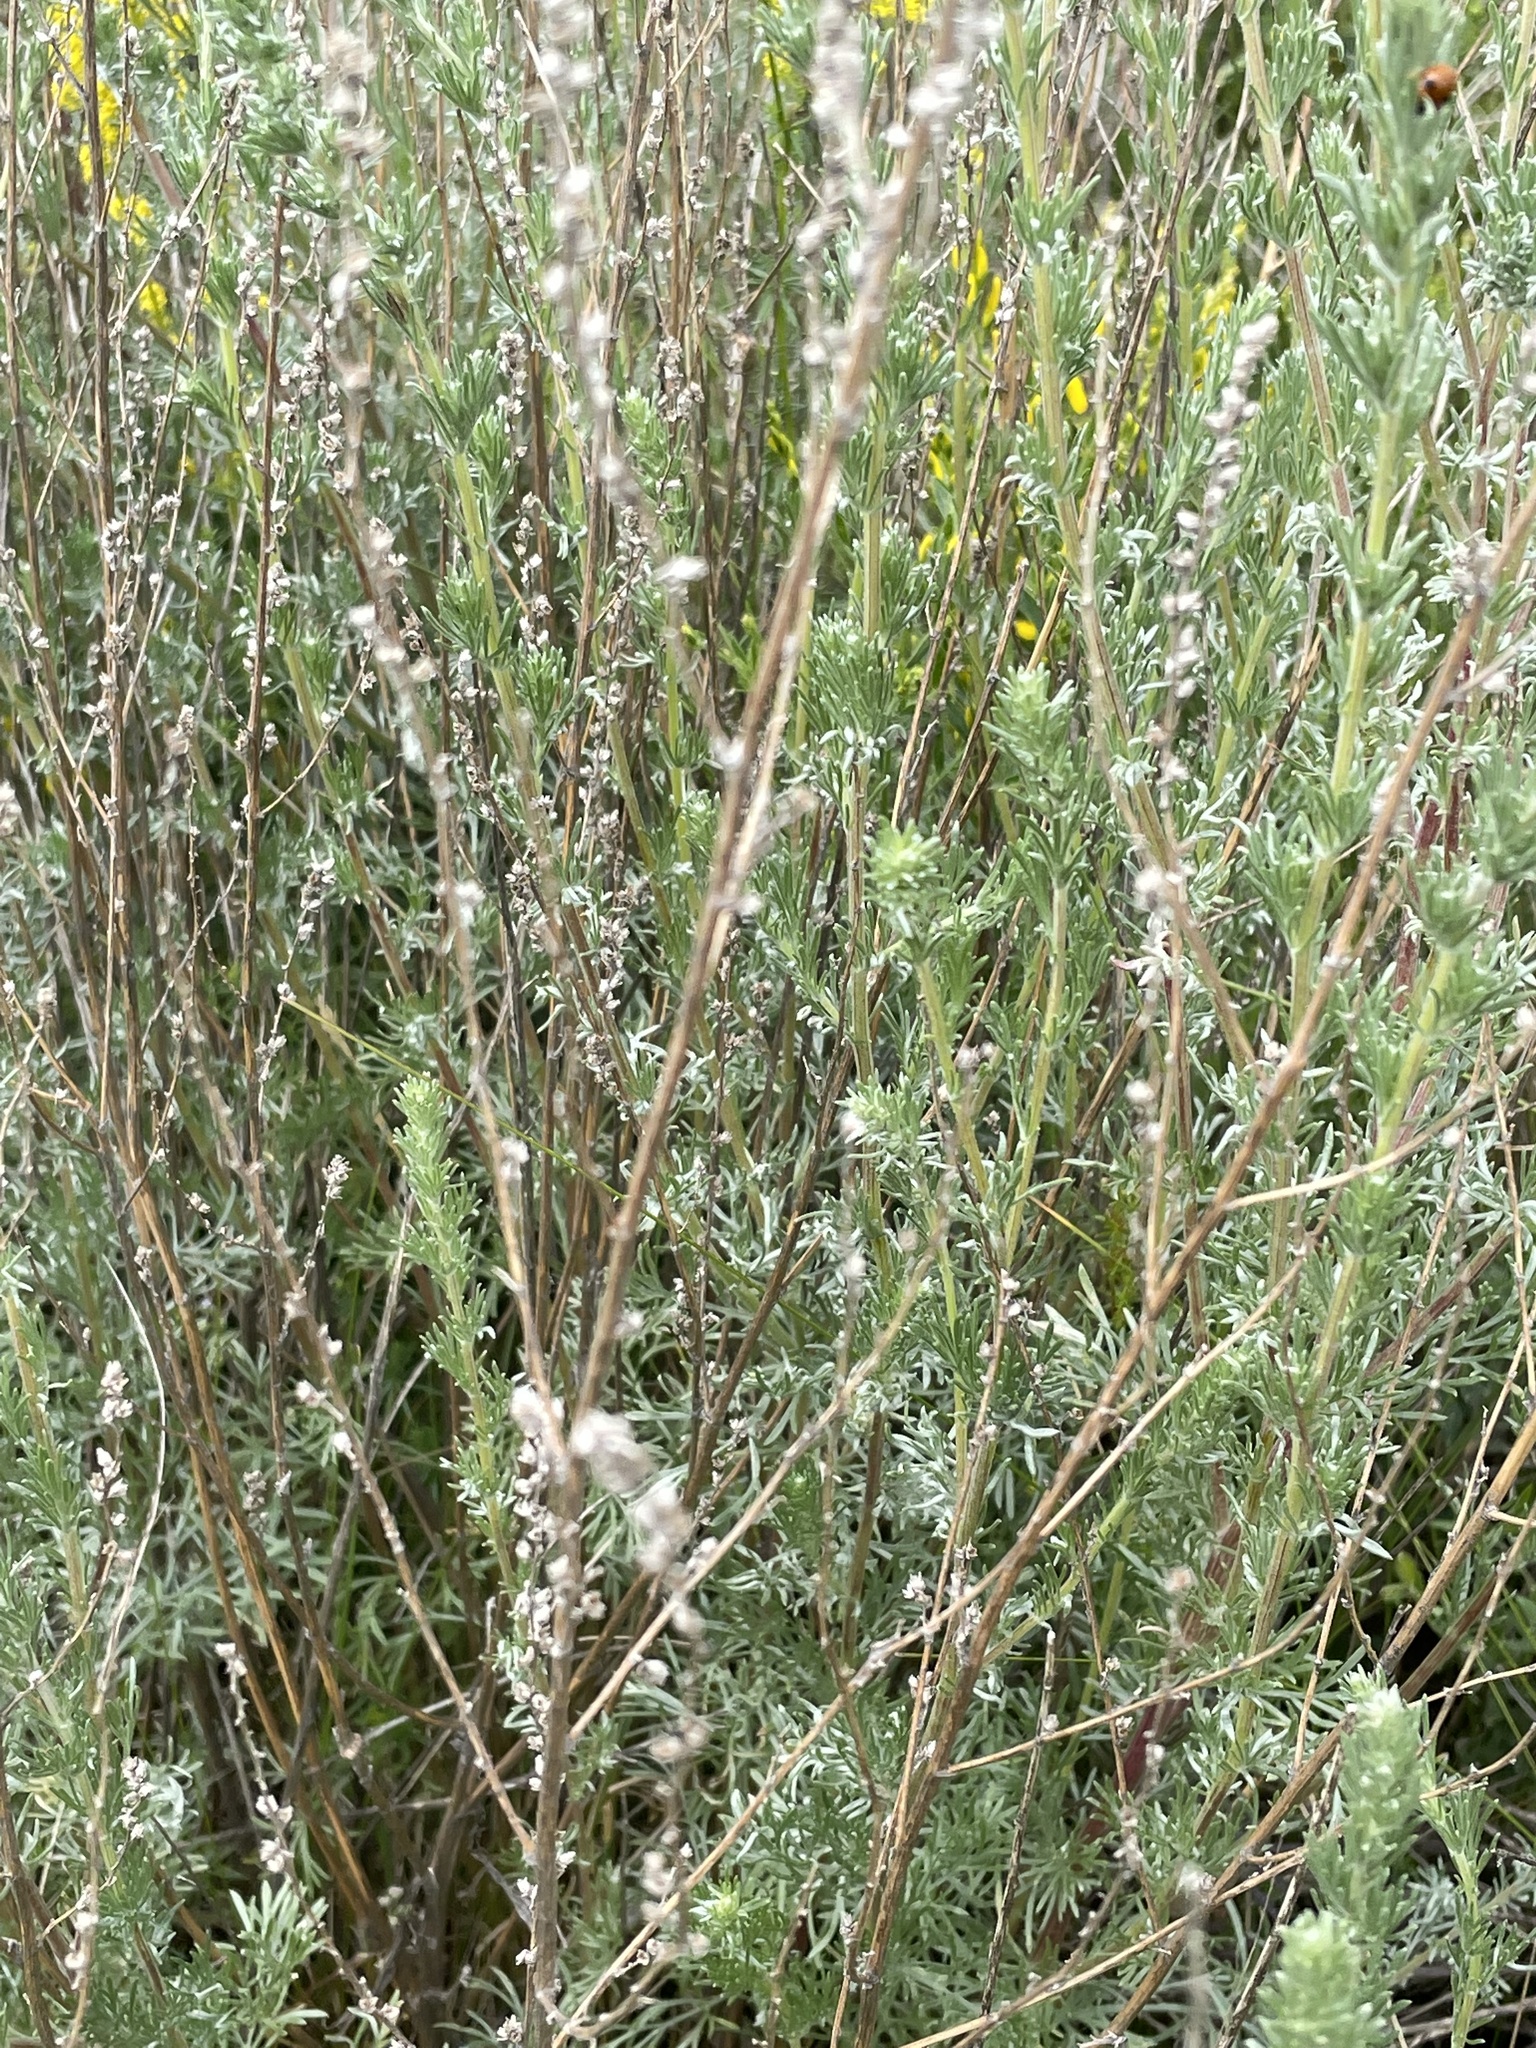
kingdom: Plantae
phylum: Tracheophyta
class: Magnoliopsida
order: Asterales
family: Asteraceae
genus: Artemisia
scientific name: Artemisia campestris
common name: Field wormwood
